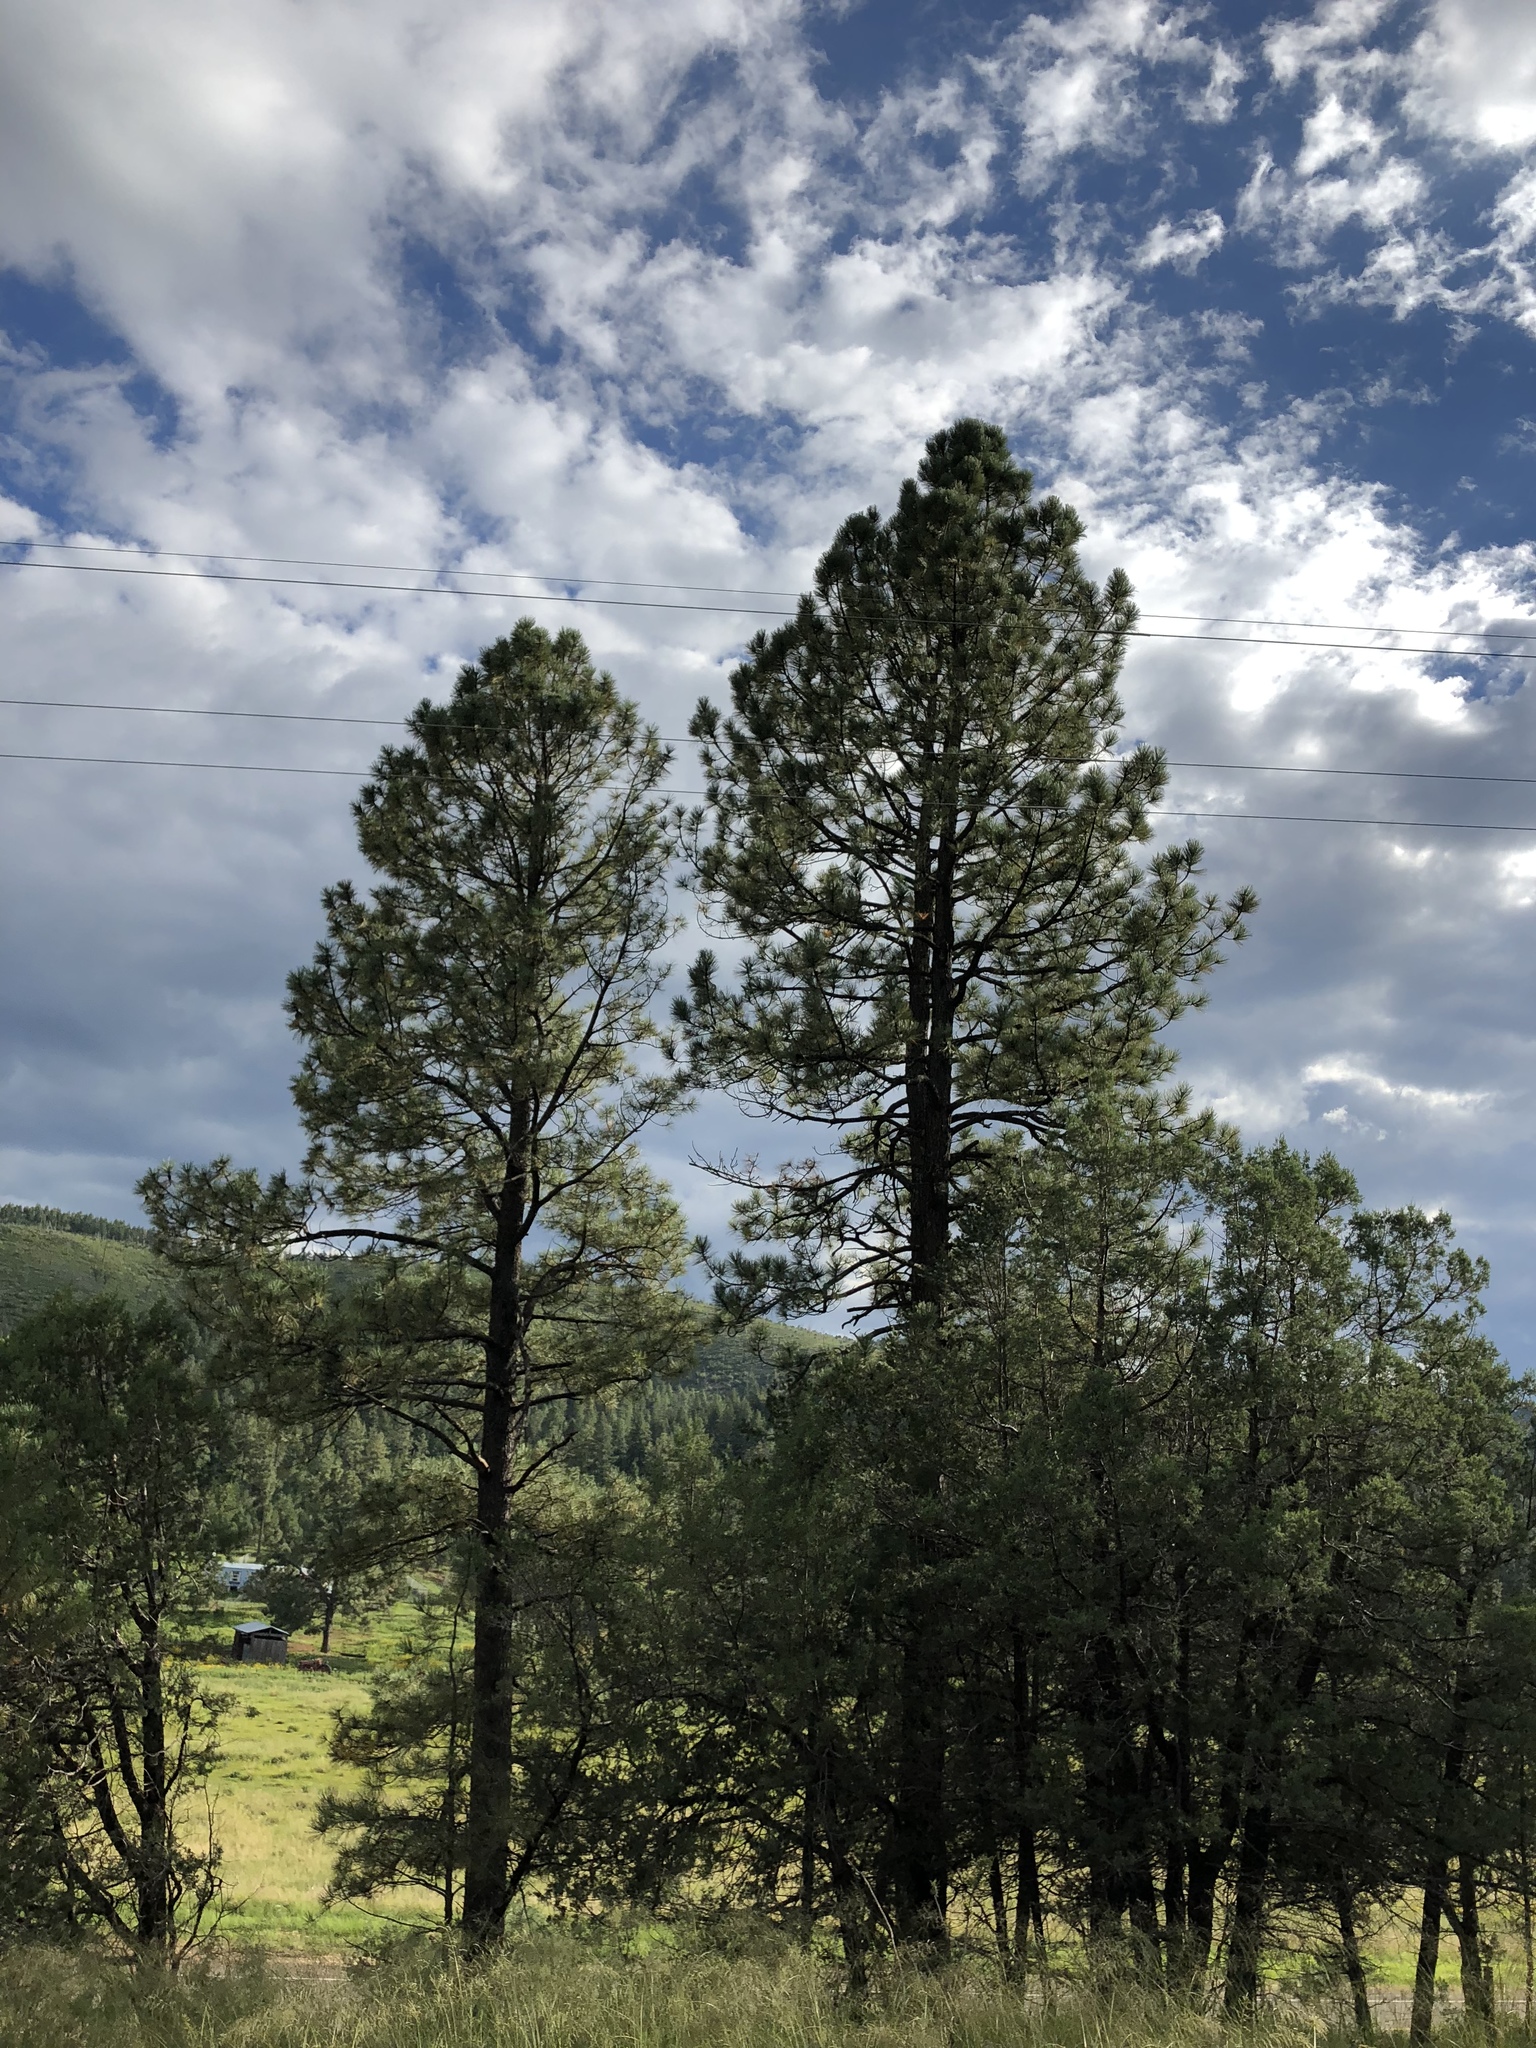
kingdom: Plantae
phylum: Tracheophyta
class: Pinopsida
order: Pinales
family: Pinaceae
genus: Pinus
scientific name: Pinus ponderosa
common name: Western yellow-pine
